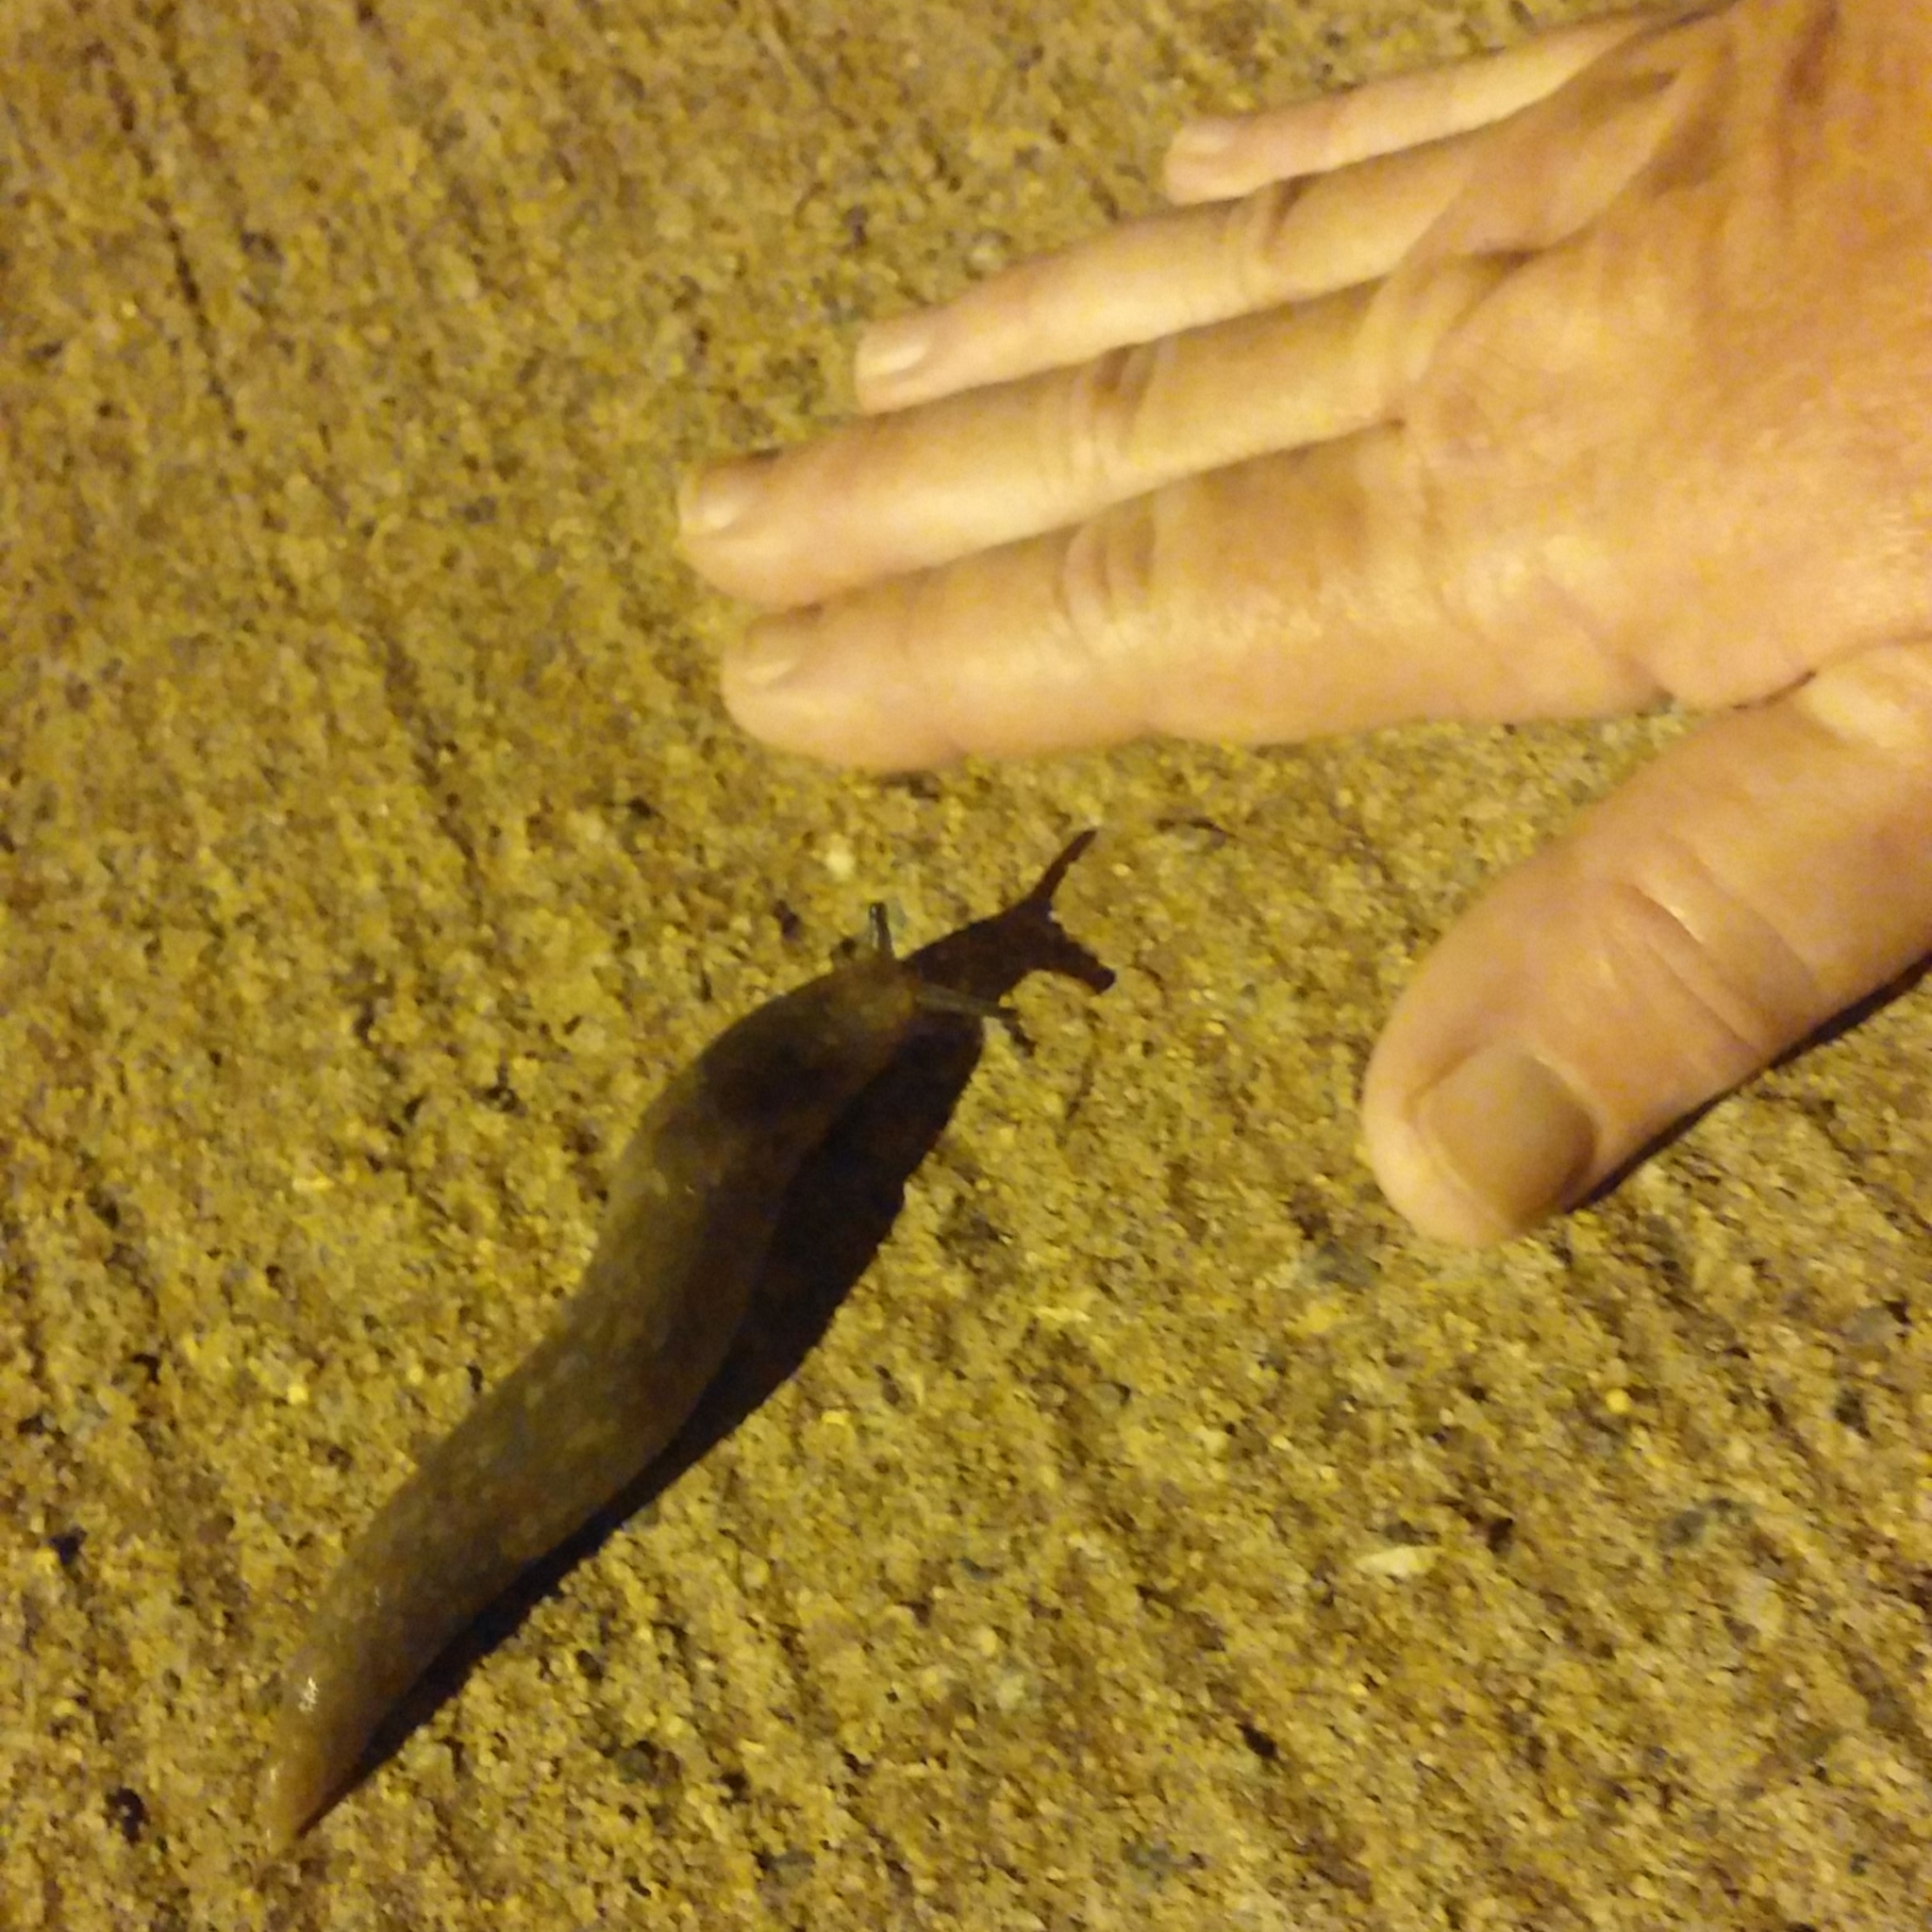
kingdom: Animalia
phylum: Mollusca
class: Gastropoda
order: Stylommatophora
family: Limacidae
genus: Limacus
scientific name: Limacus flavus
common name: Yellow gardenslug
